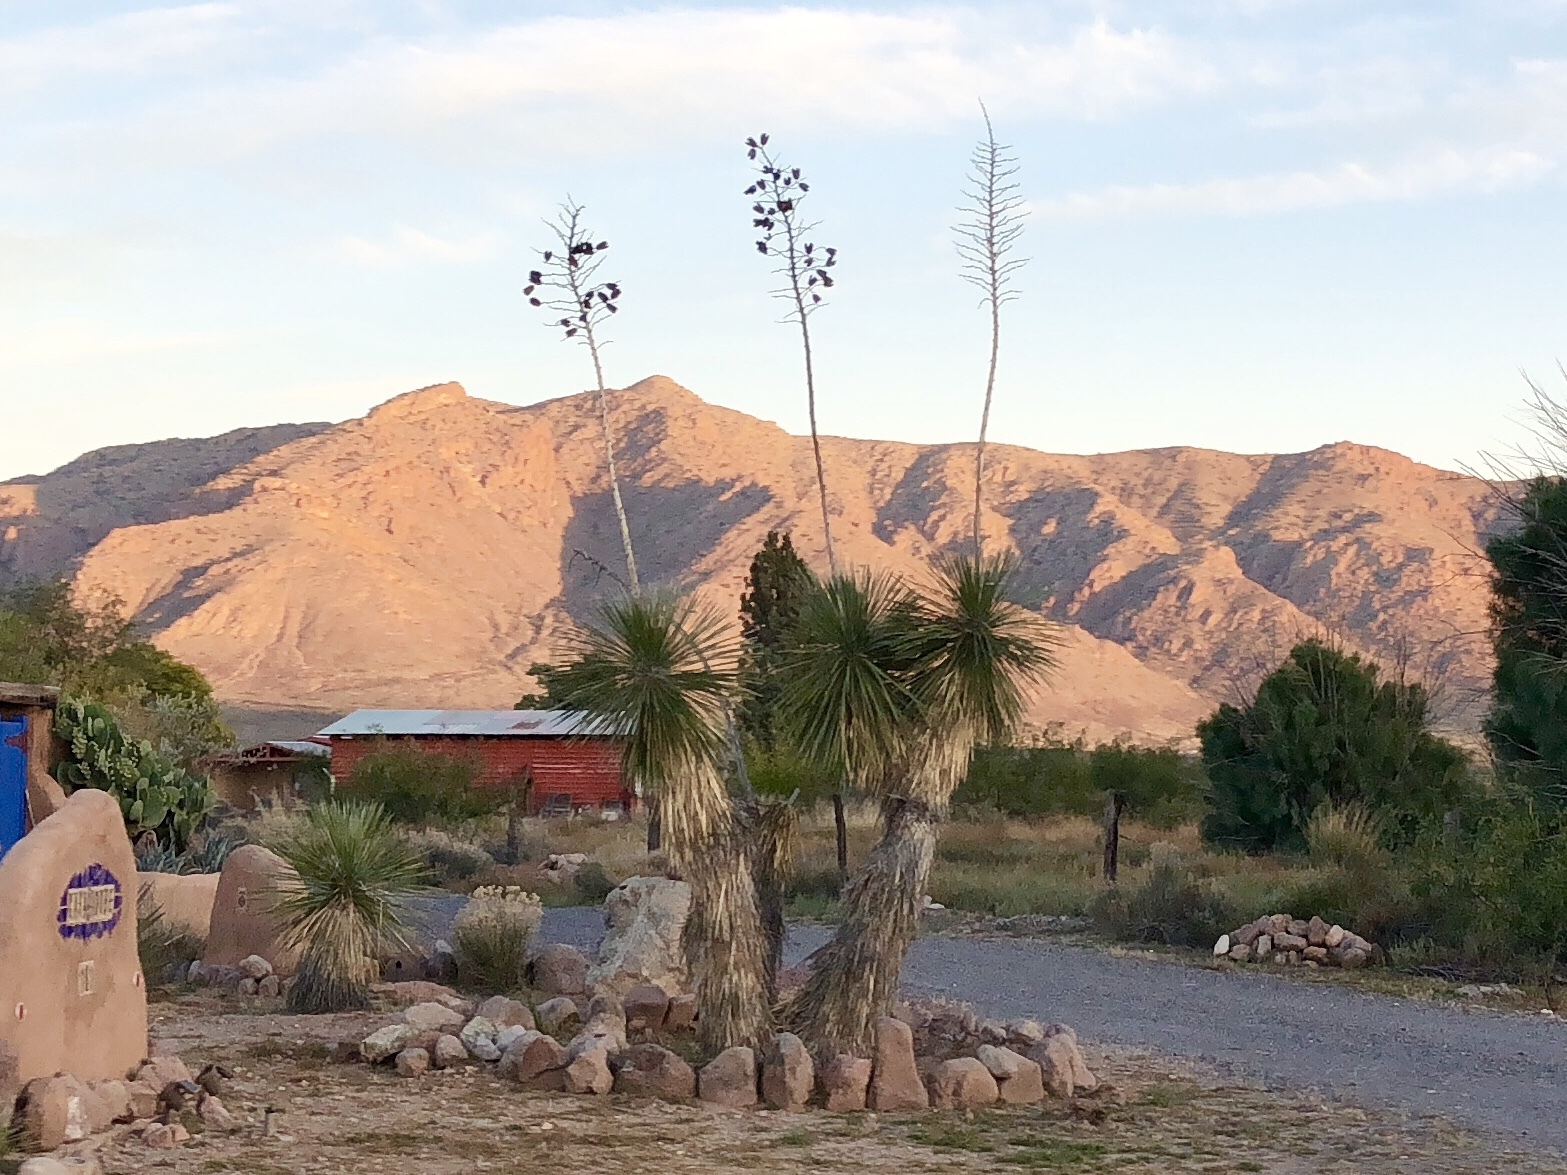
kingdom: Plantae
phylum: Tracheophyta
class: Liliopsida
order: Asparagales
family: Asparagaceae
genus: Yucca
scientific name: Yucca elata
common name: Palmella
